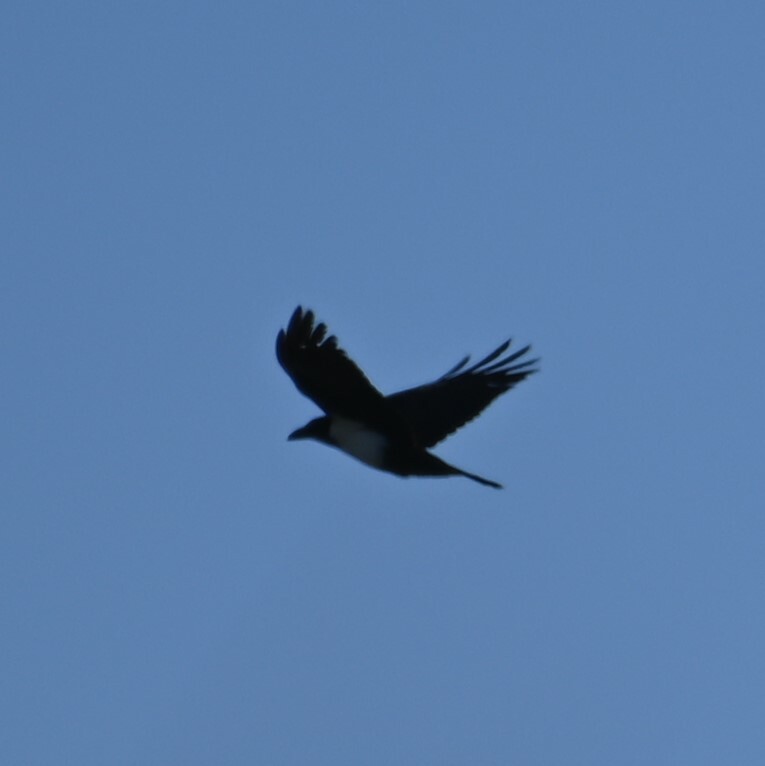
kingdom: Animalia
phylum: Chordata
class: Aves
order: Passeriformes
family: Corvidae
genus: Corvus
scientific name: Corvus albus
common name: Pied crow
